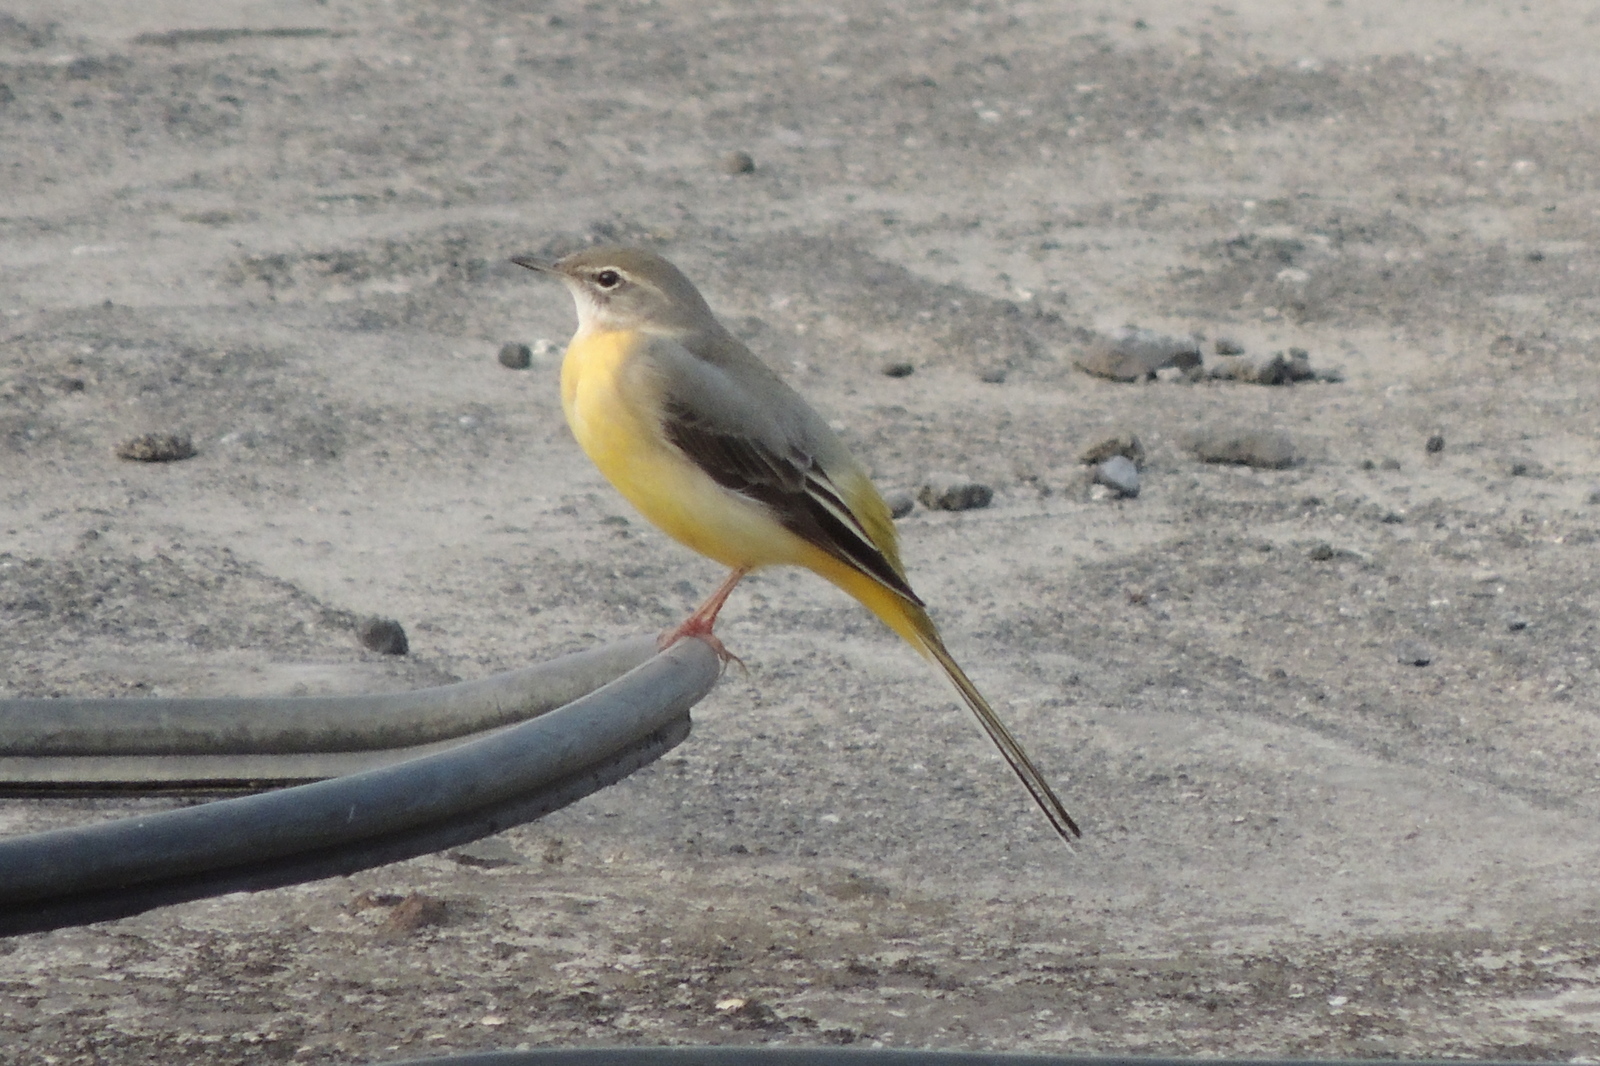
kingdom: Animalia
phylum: Chordata
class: Aves
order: Passeriformes
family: Motacillidae
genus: Motacilla
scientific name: Motacilla cinerea
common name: Grey wagtail
